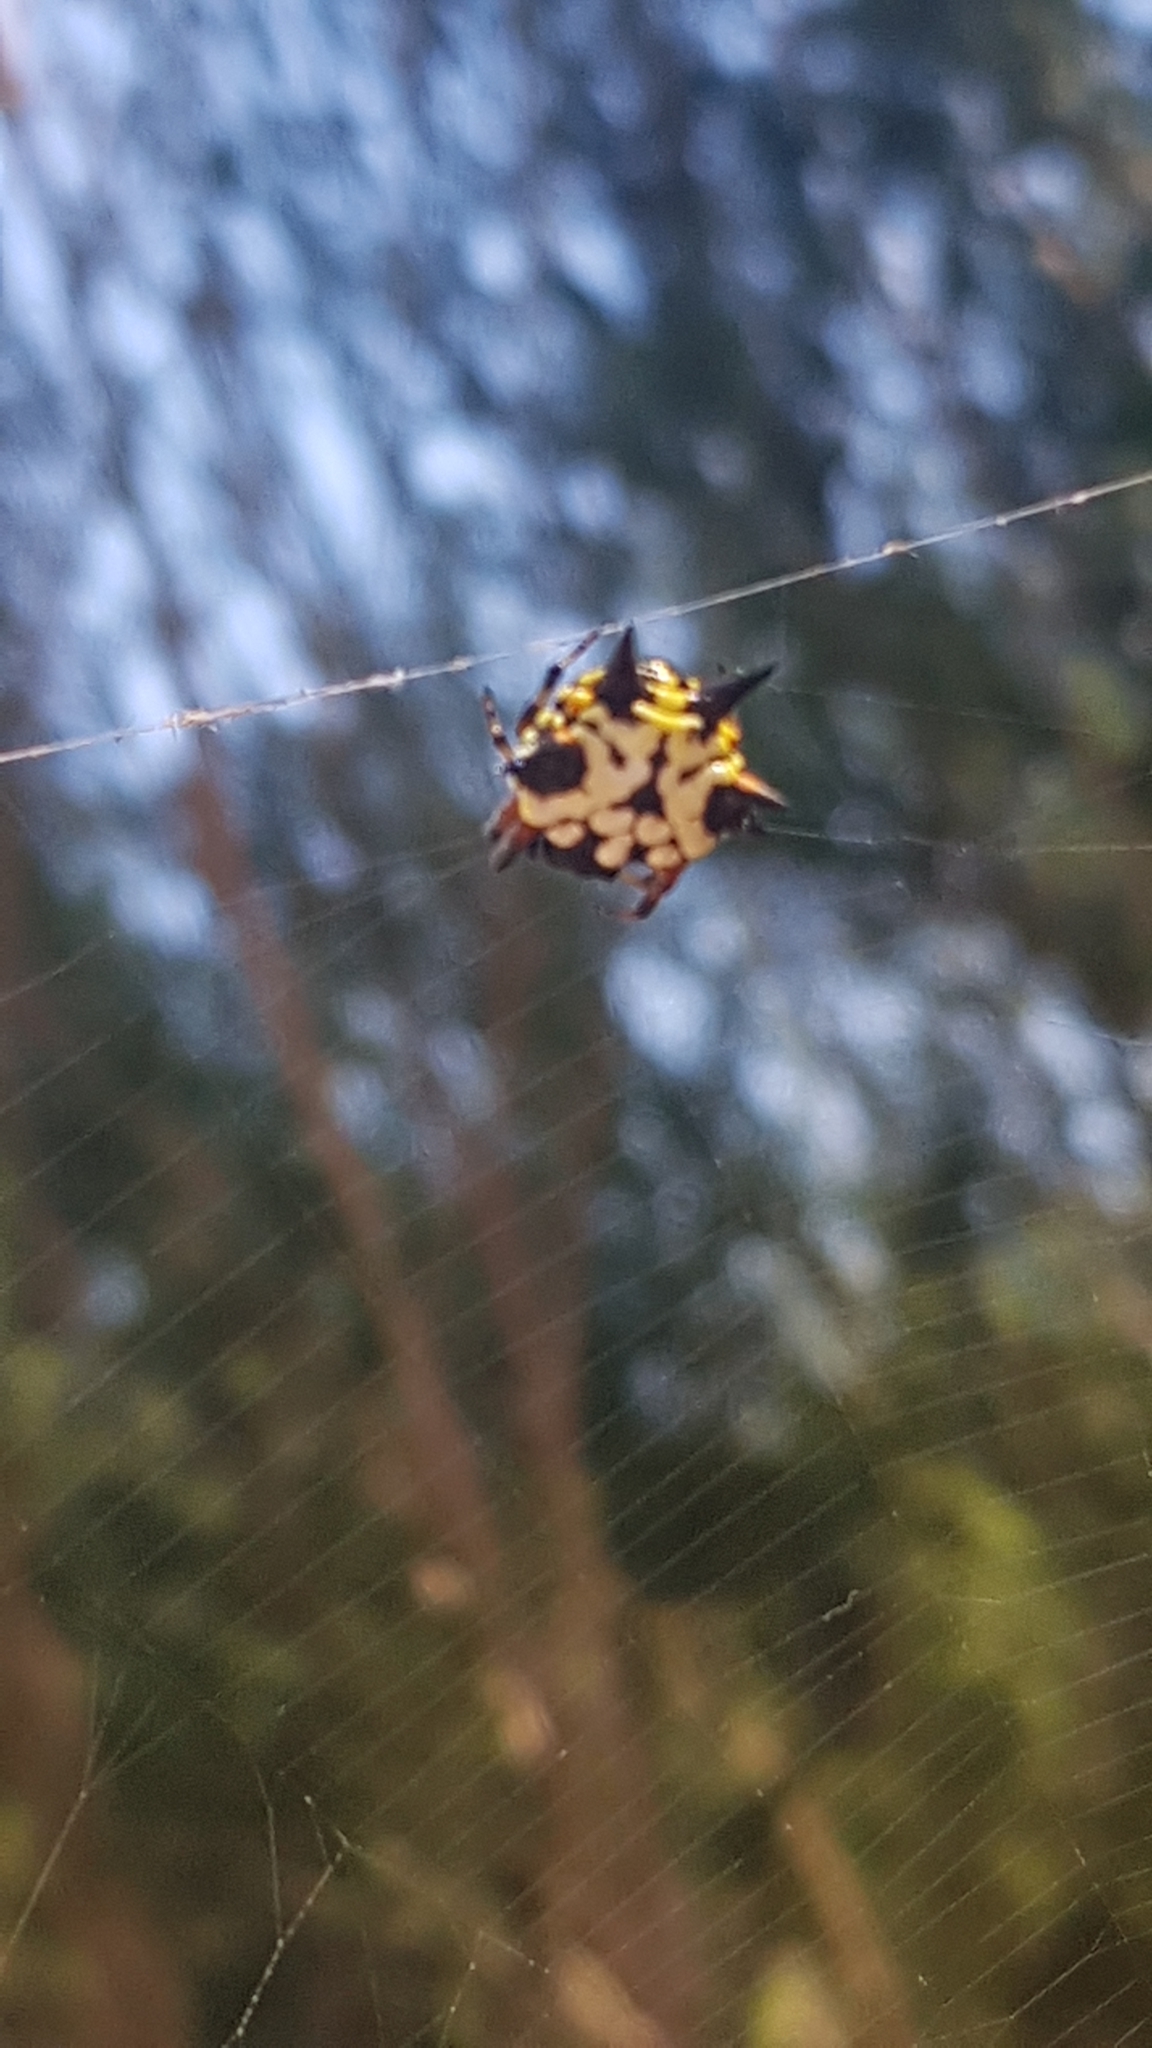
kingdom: Animalia
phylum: Arthropoda
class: Arachnida
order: Araneae
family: Araneidae
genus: Austracantha
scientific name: Austracantha minax
